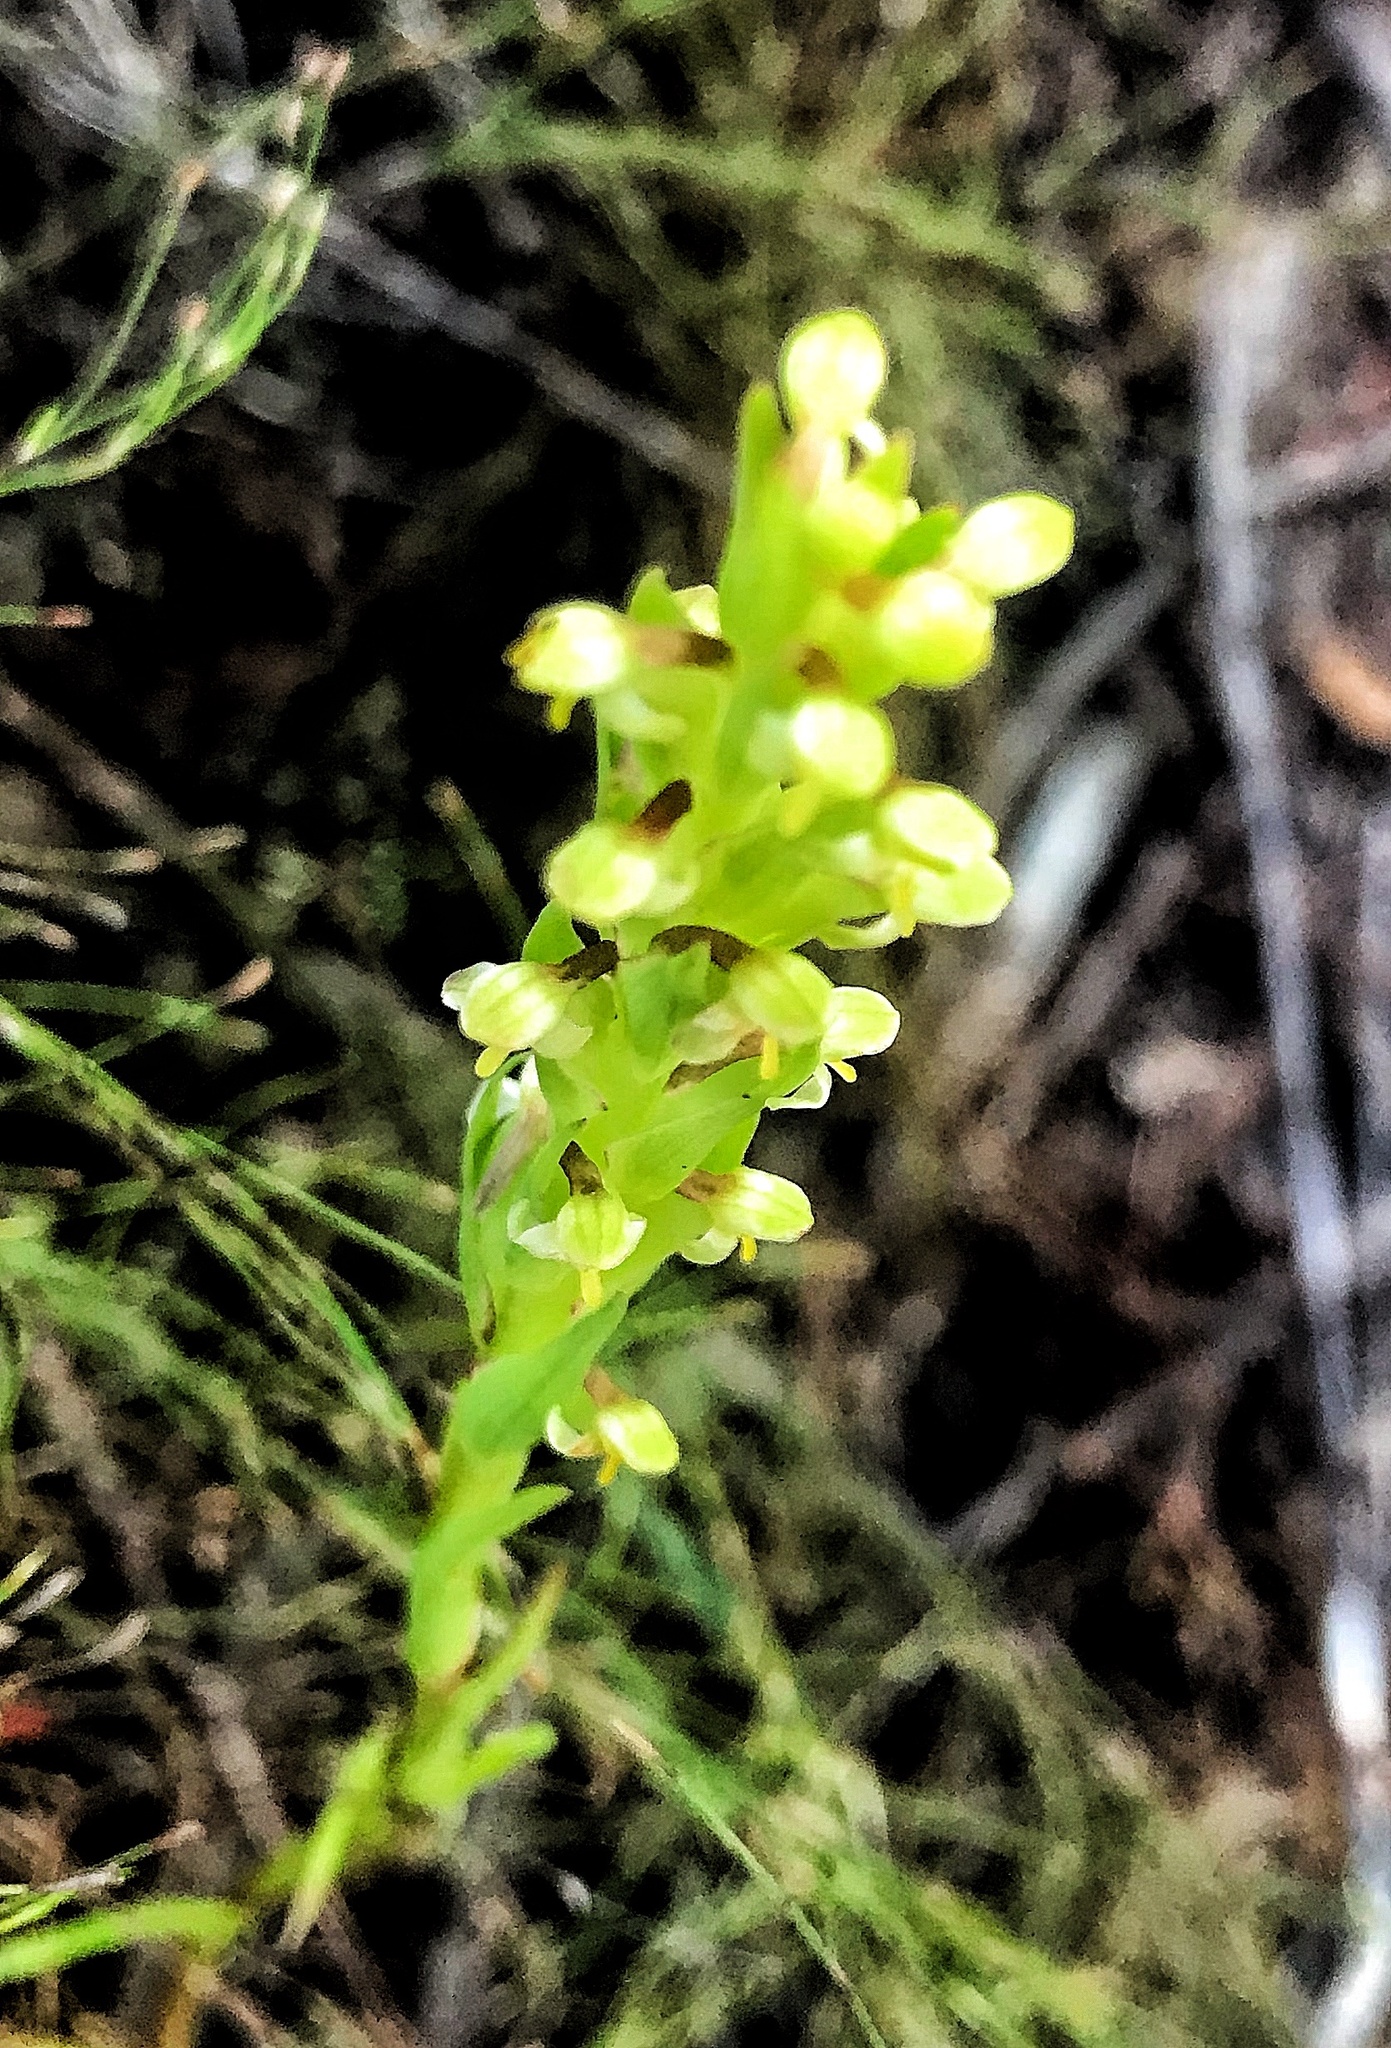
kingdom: Plantae
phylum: Tracheophyta
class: Liliopsida
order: Asparagales
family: Orchidaceae
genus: Disa
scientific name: Disa bracteata
